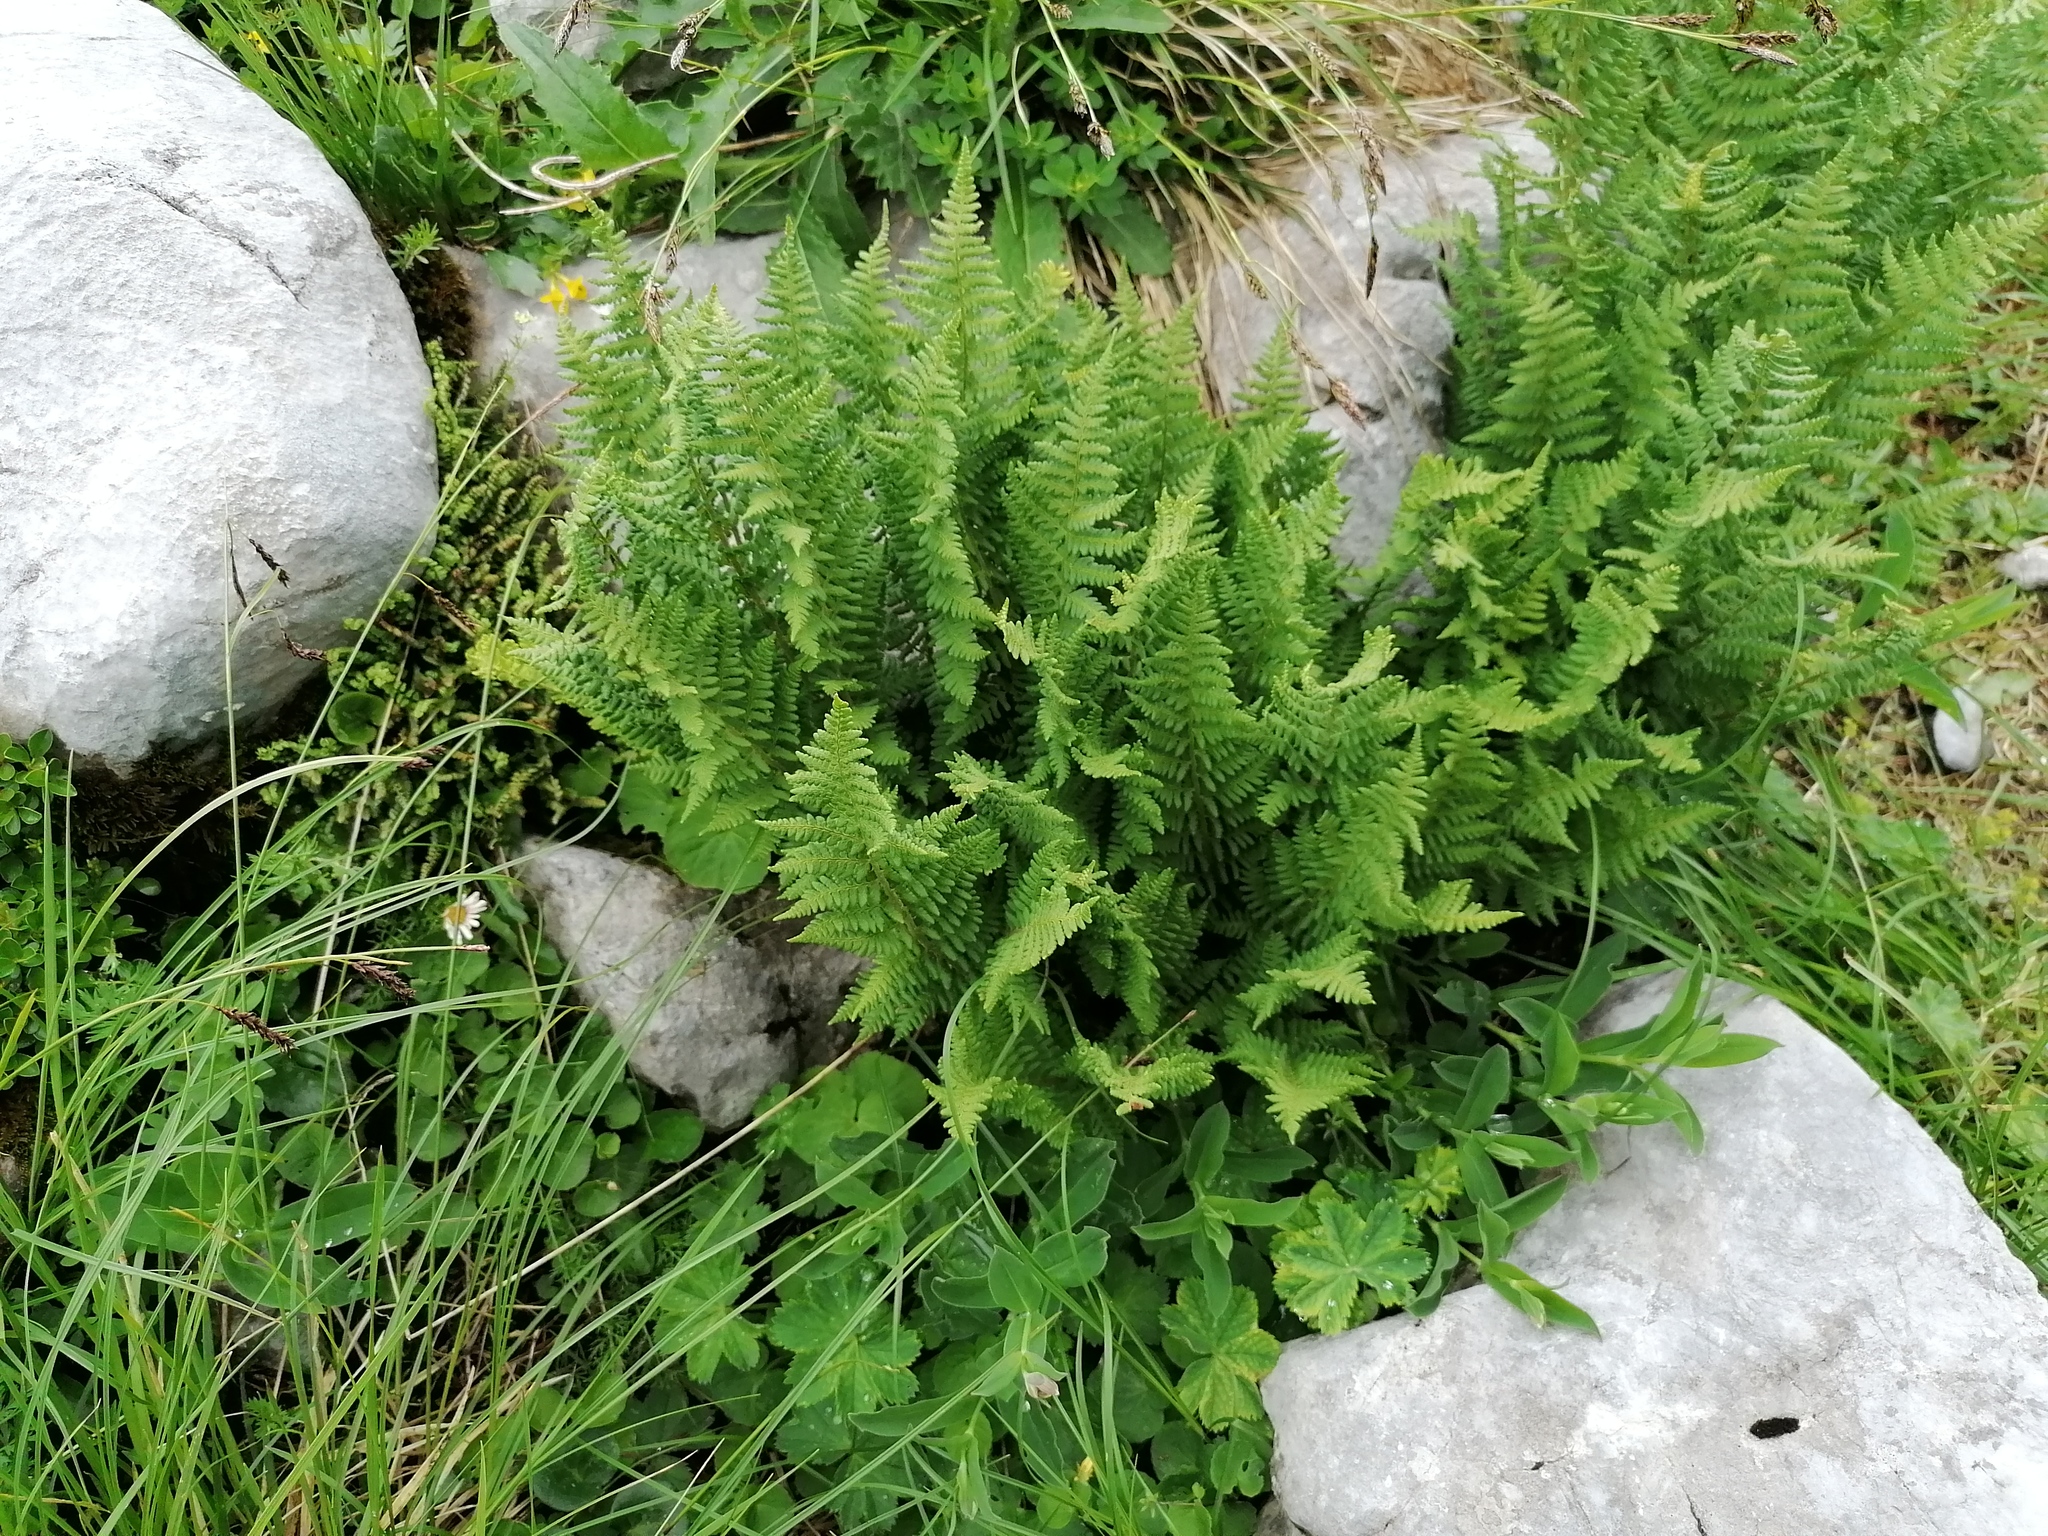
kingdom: Plantae
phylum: Tracheophyta
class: Polypodiopsida
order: Polypodiales
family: Dryopteridaceae
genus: Dryopteris
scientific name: Dryopteris villarii
